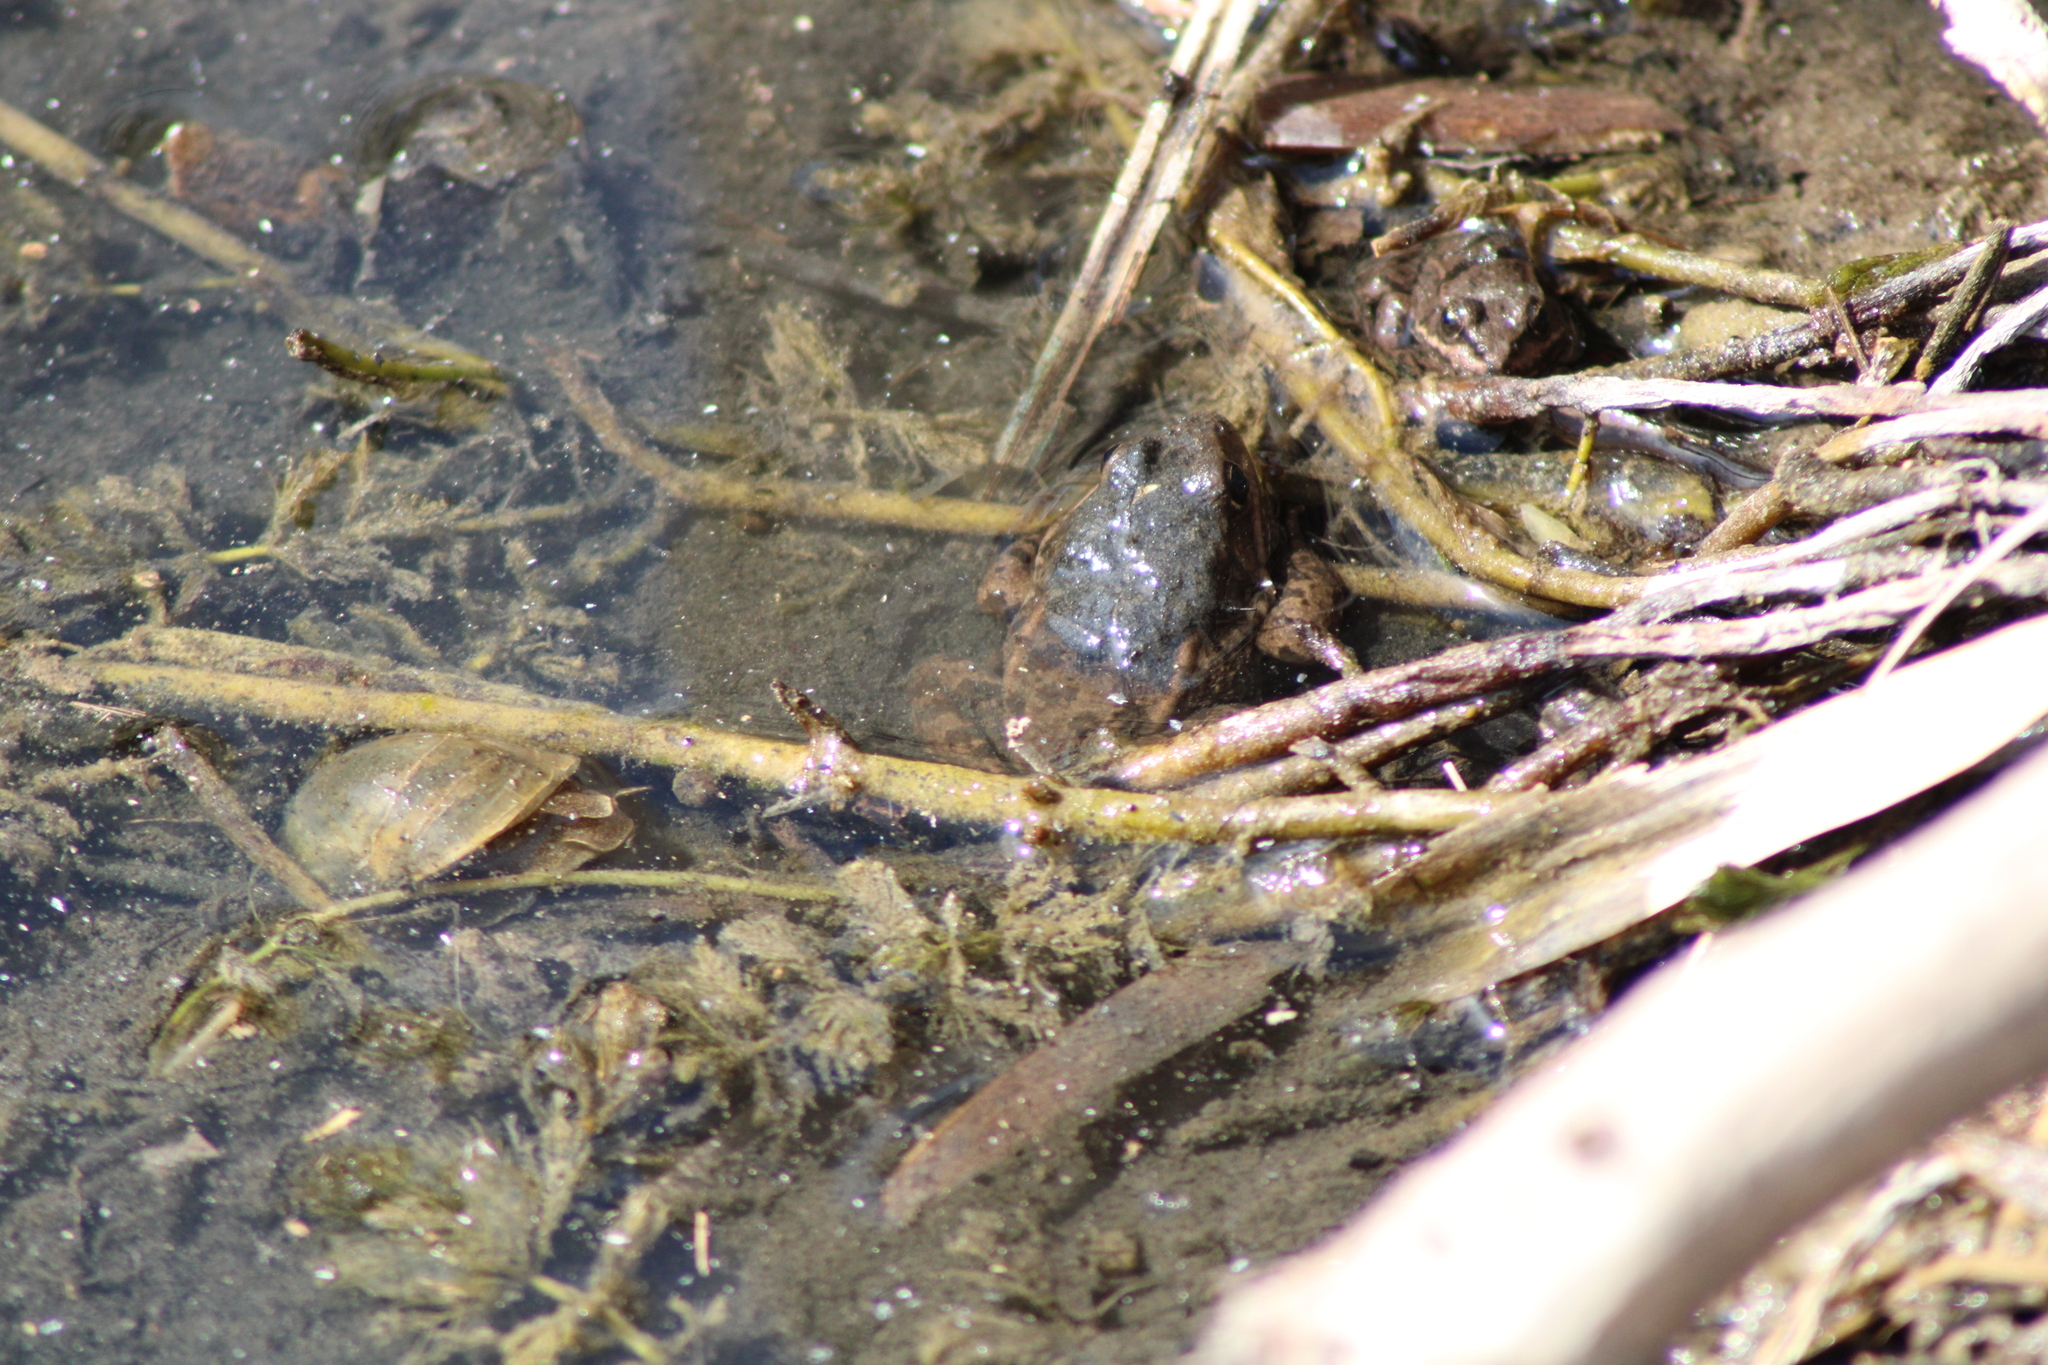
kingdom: Animalia
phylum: Chordata
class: Amphibia
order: Anura
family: Ranidae
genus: Pelophylax
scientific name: Pelophylax
